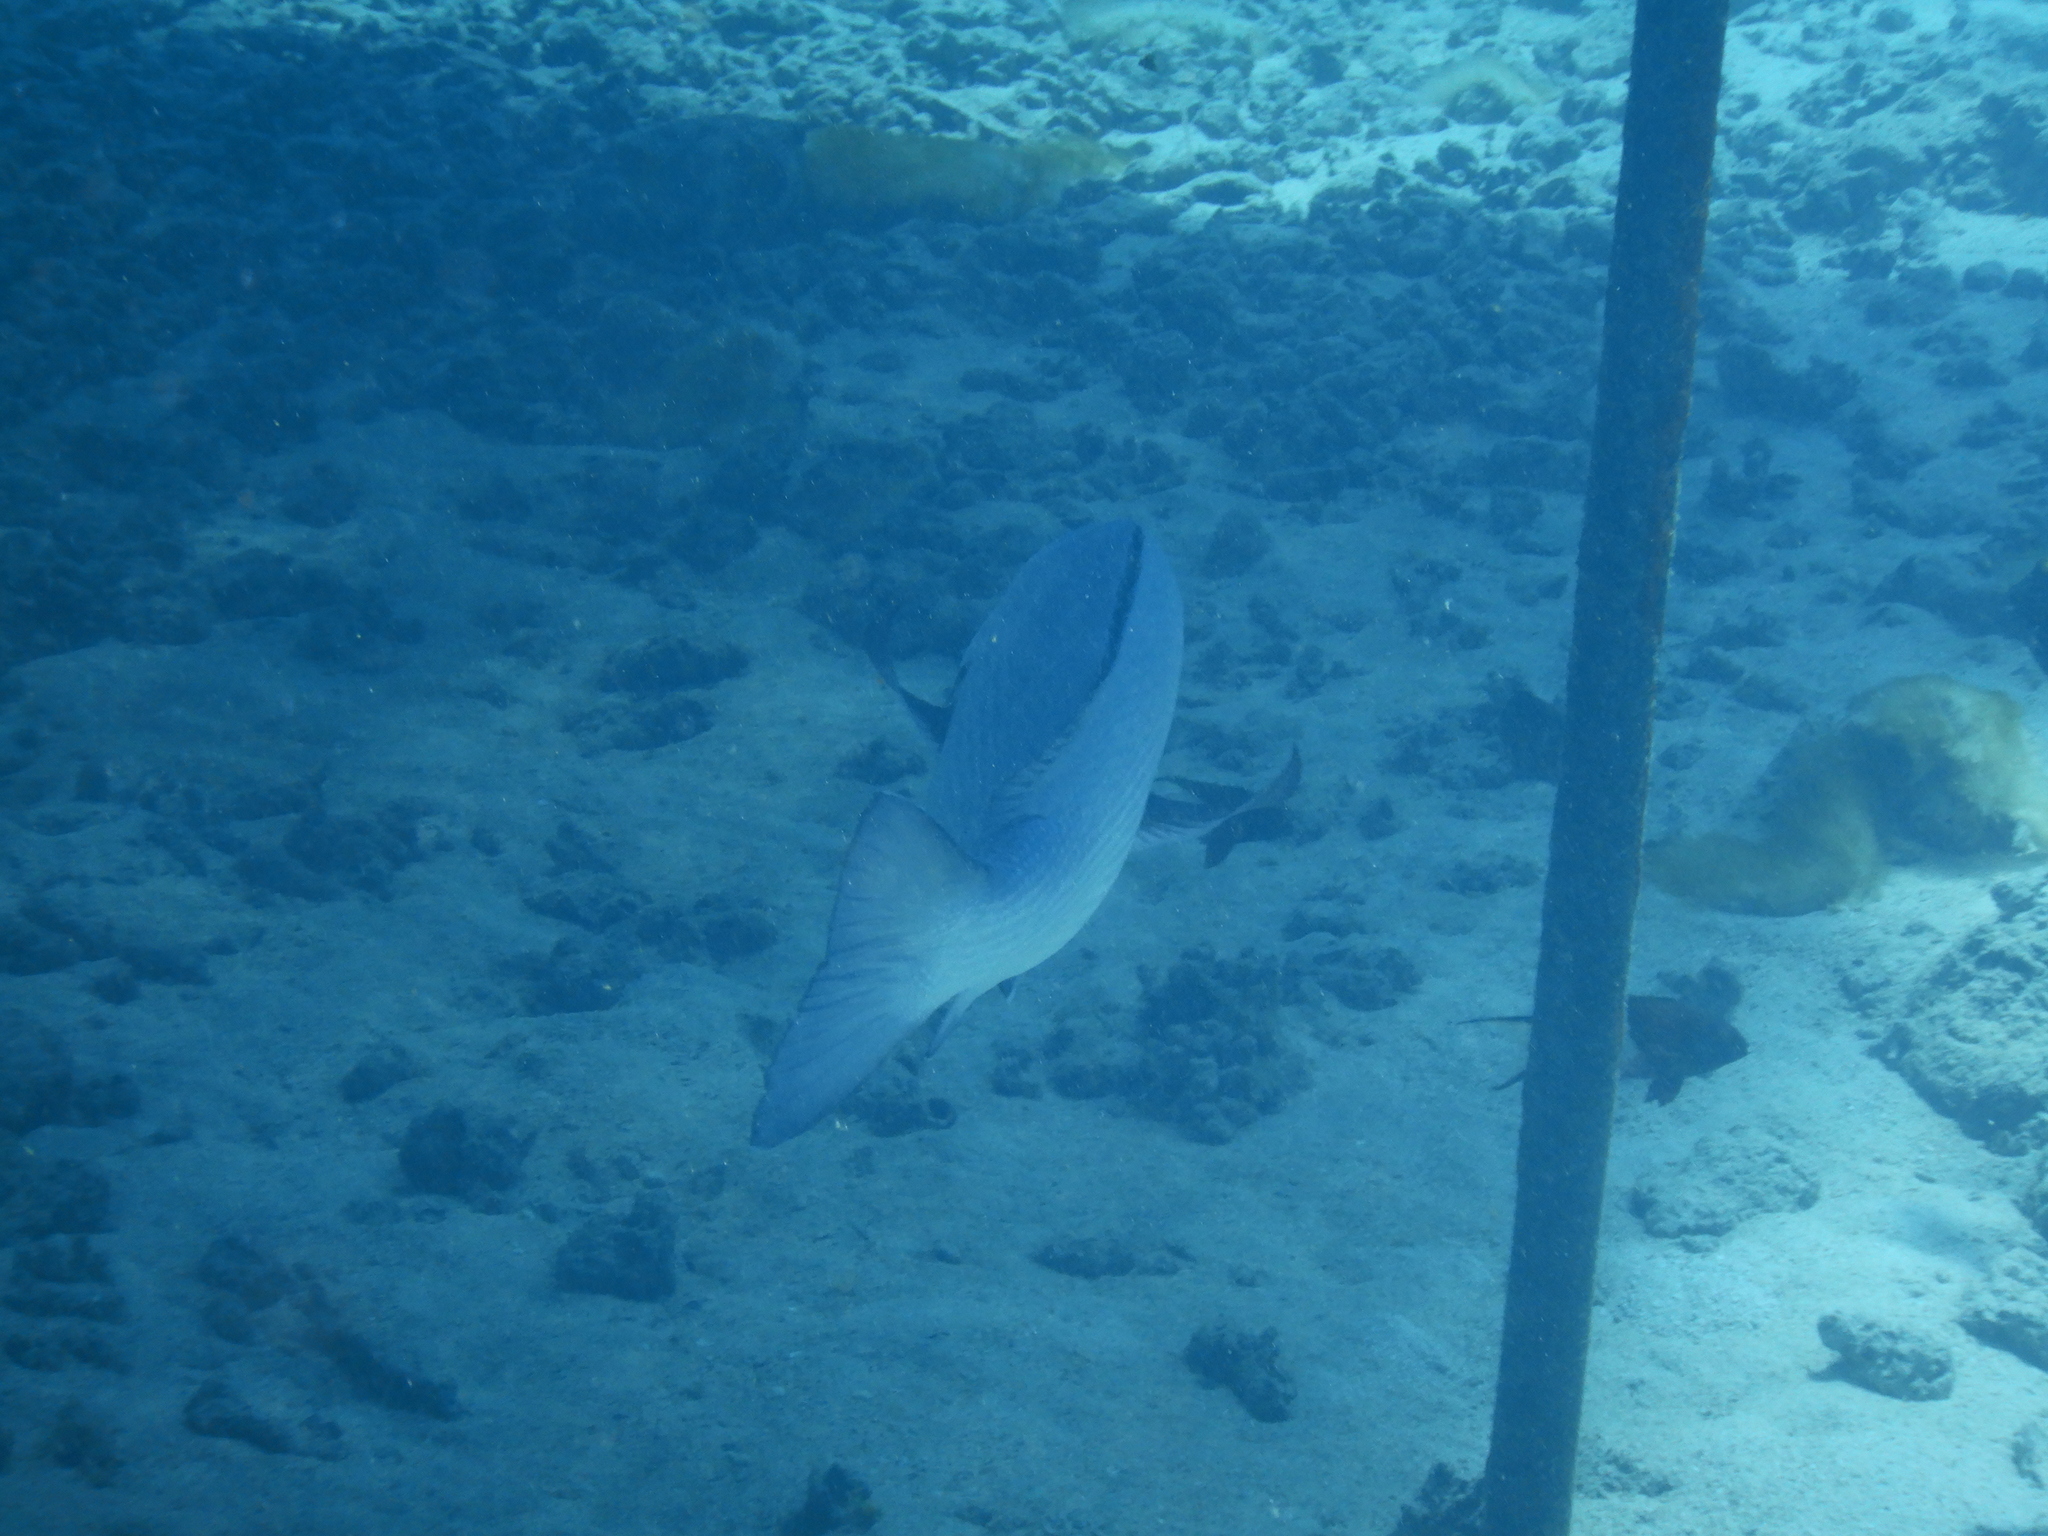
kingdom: Animalia
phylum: Chordata
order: Perciformes
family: Lutjanidae
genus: Lutjanus
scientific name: Lutjanus bohar
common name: Red bass
